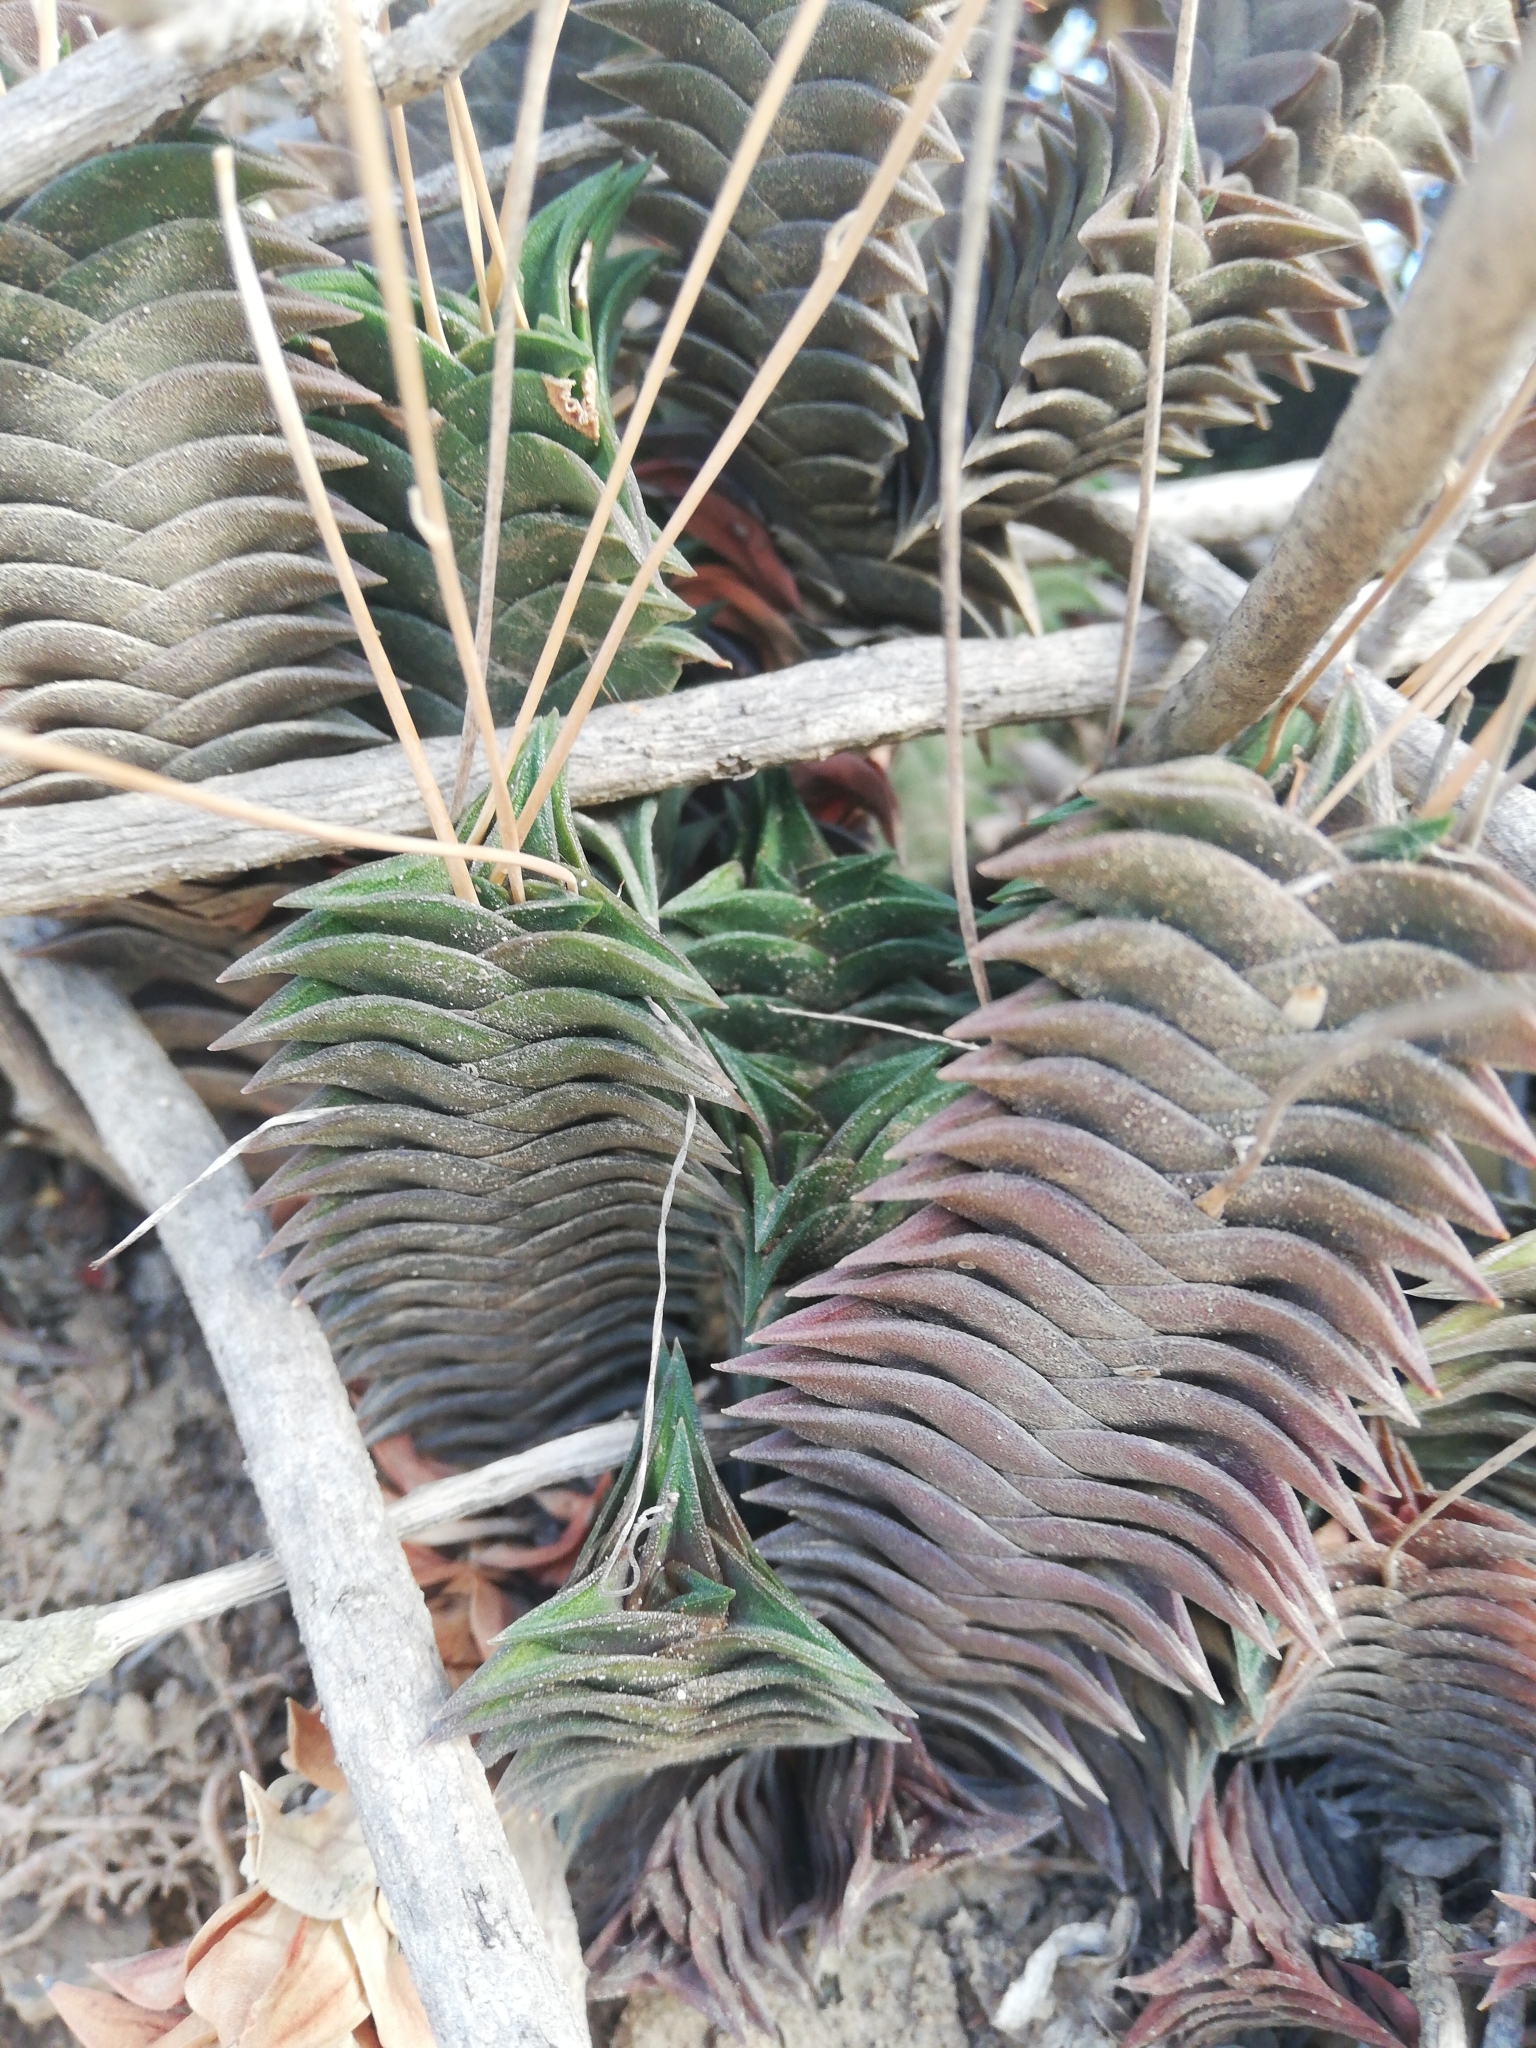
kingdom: Plantae
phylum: Tracheophyta
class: Liliopsida
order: Asparagales
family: Asphodelaceae
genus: Haworthiopsis
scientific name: Haworthiopsis viscosa
